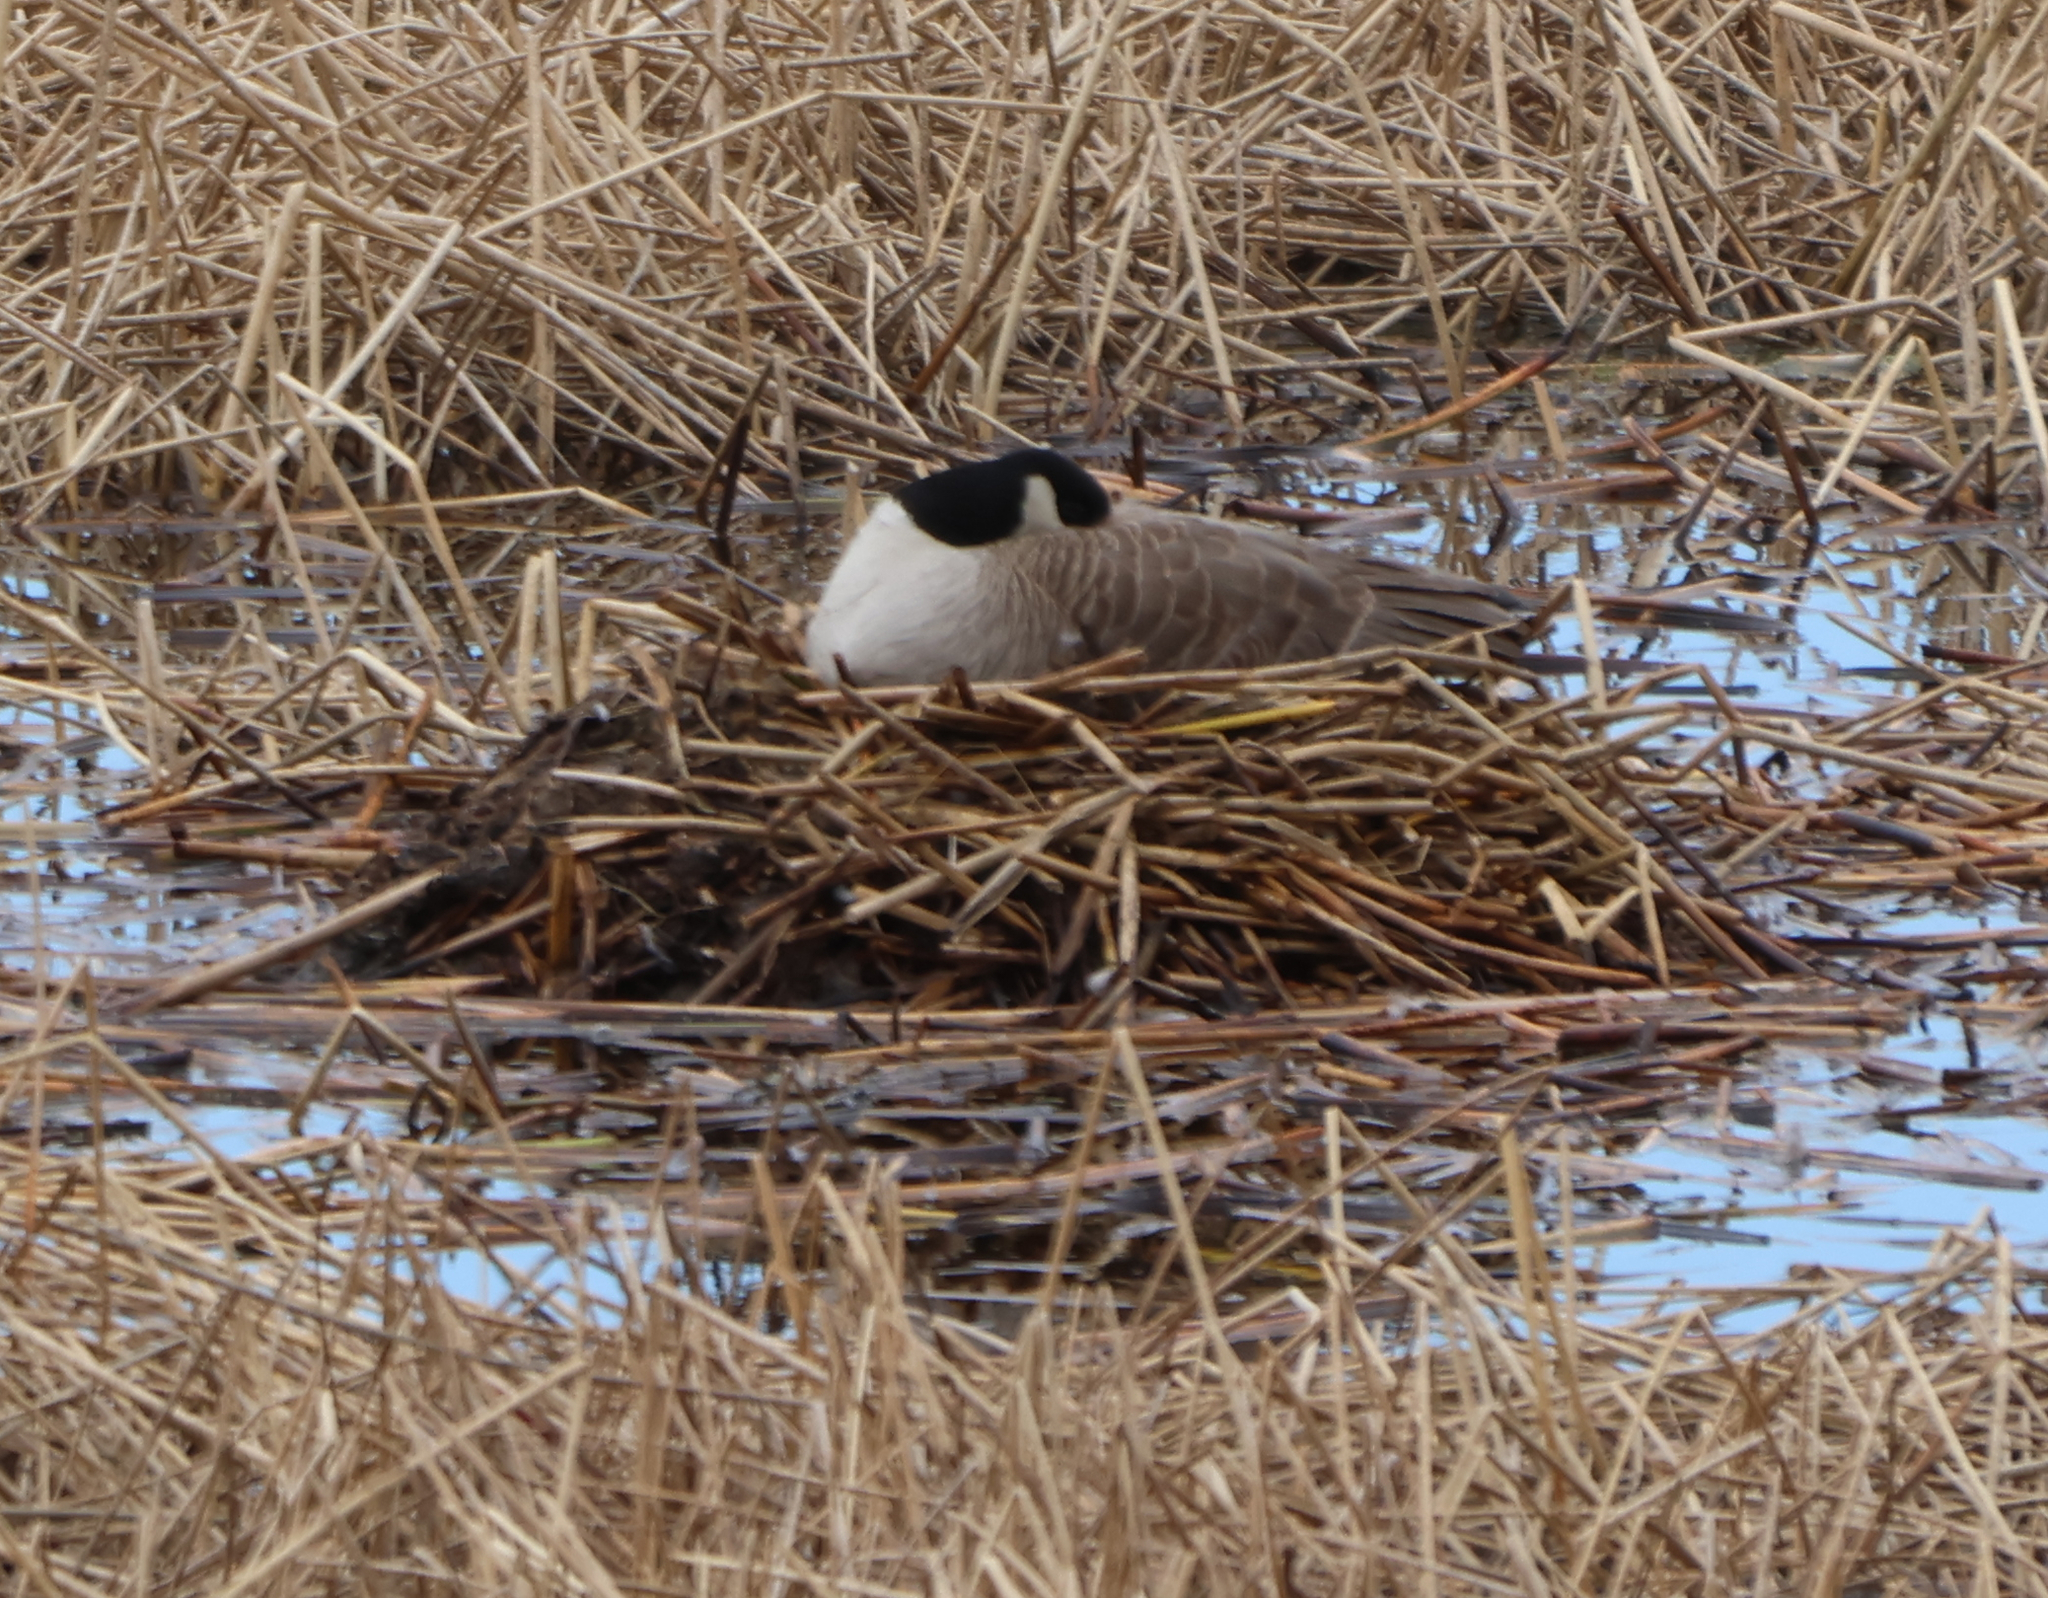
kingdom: Animalia
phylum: Chordata
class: Aves
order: Anseriformes
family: Anatidae
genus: Branta
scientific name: Branta canadensis
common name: Canada goose
